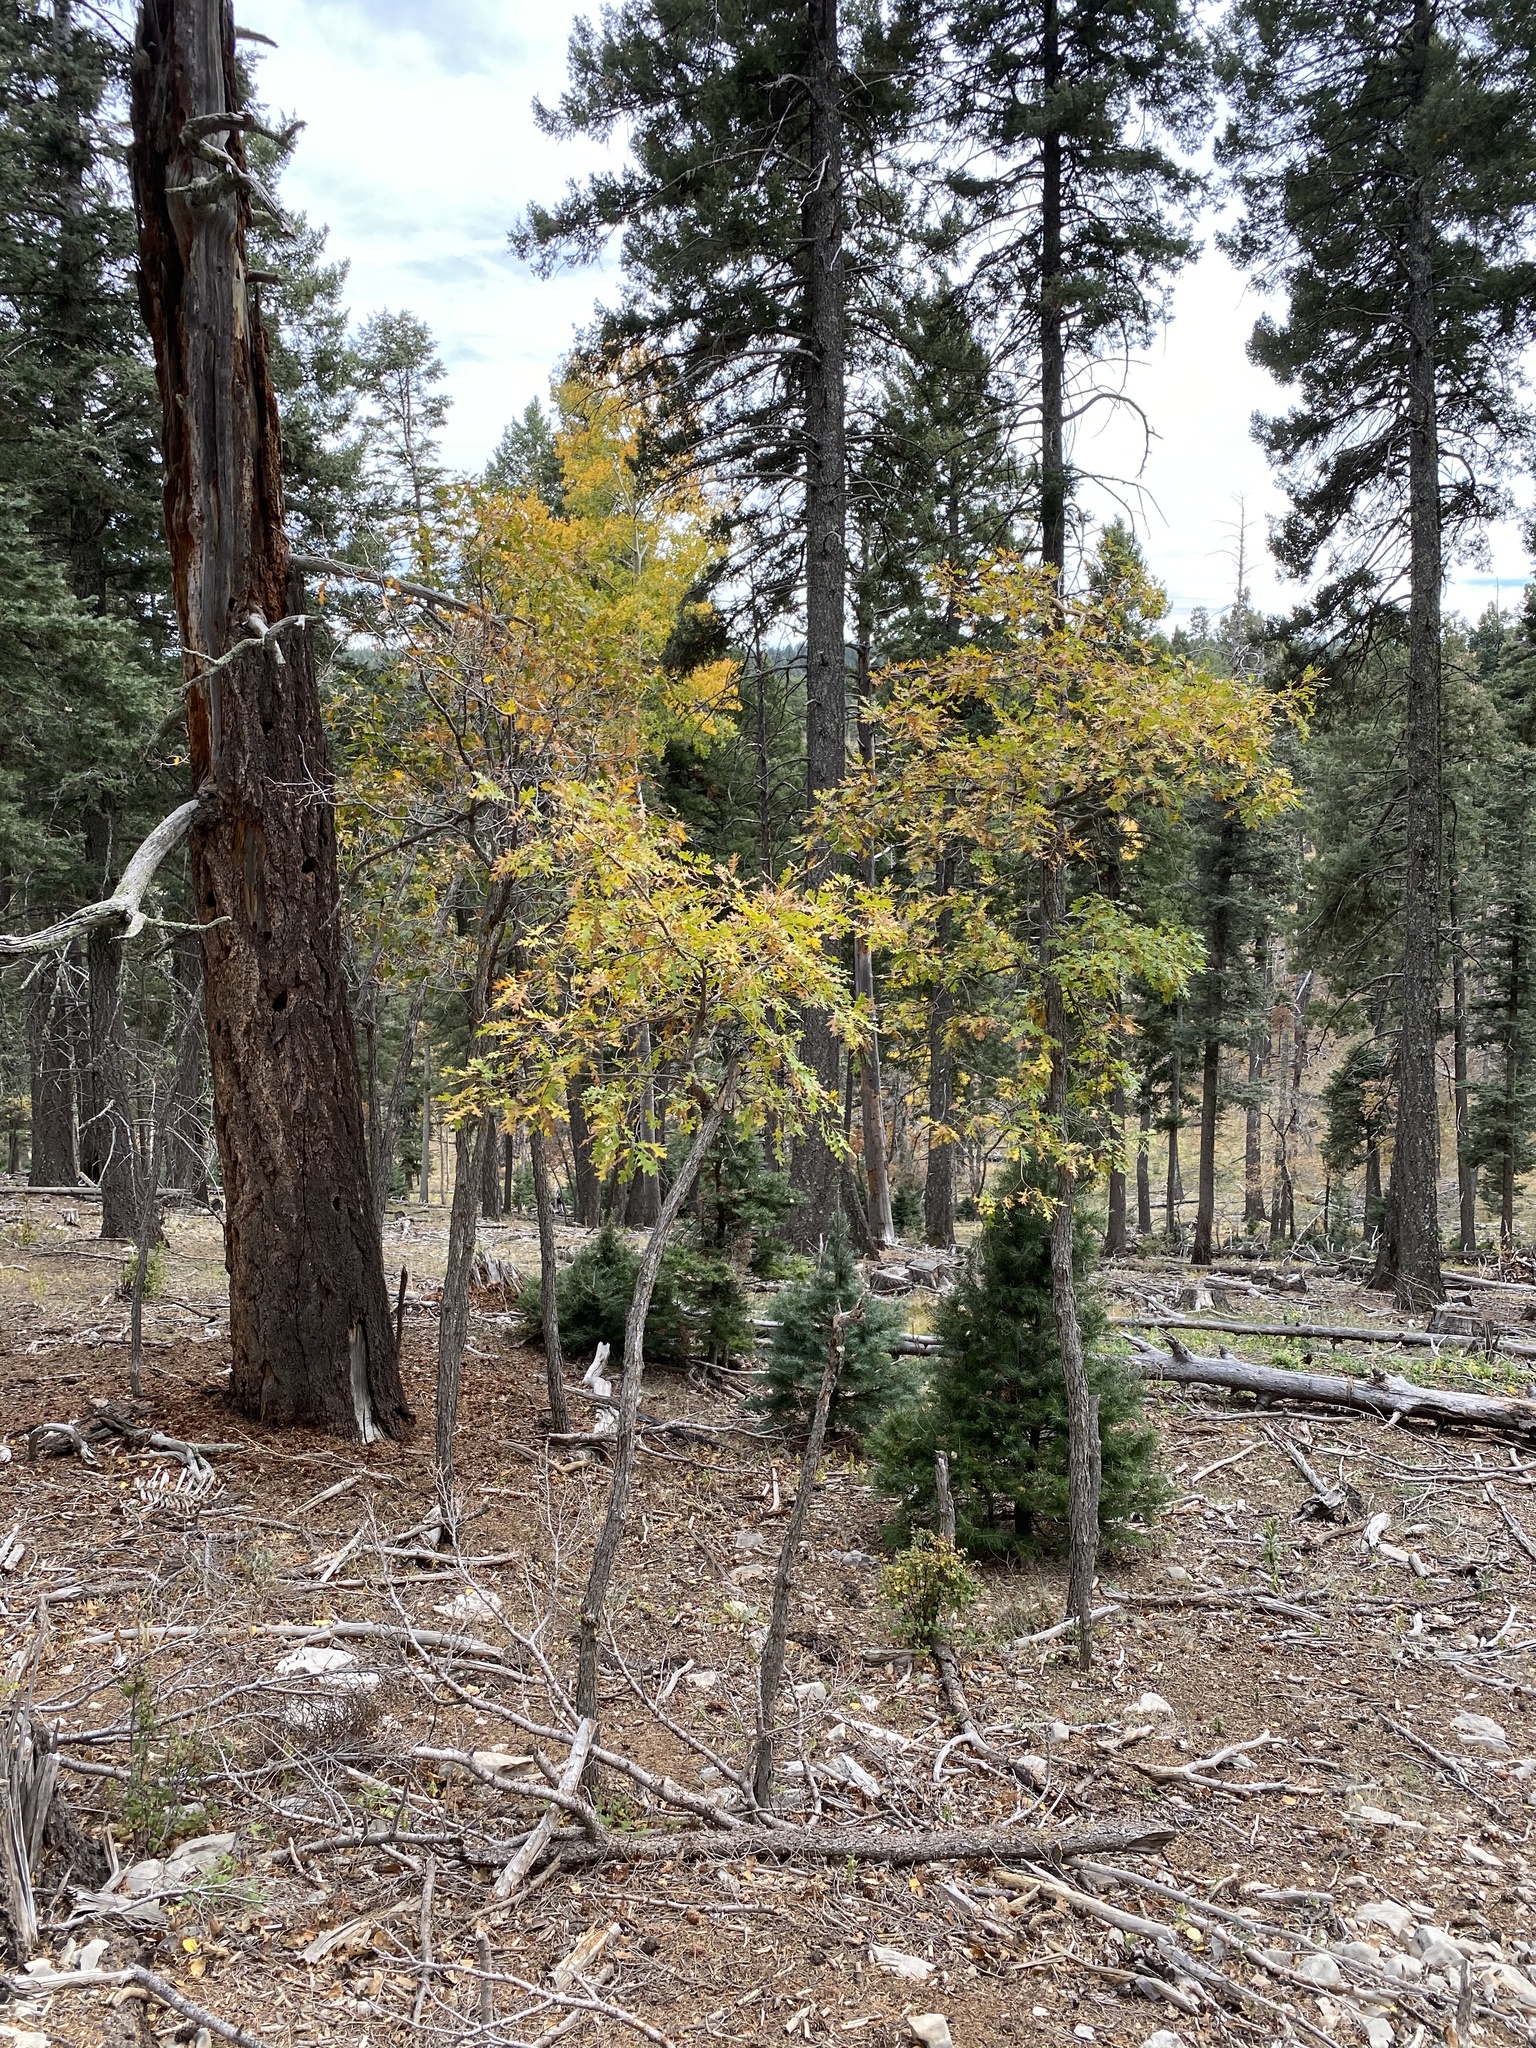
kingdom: Plantae
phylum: Tracheophyta
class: Magnoliopsida
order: Fagales
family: Fagaceae
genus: Quercus
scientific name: Quercus gambelii
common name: Gambel oak
